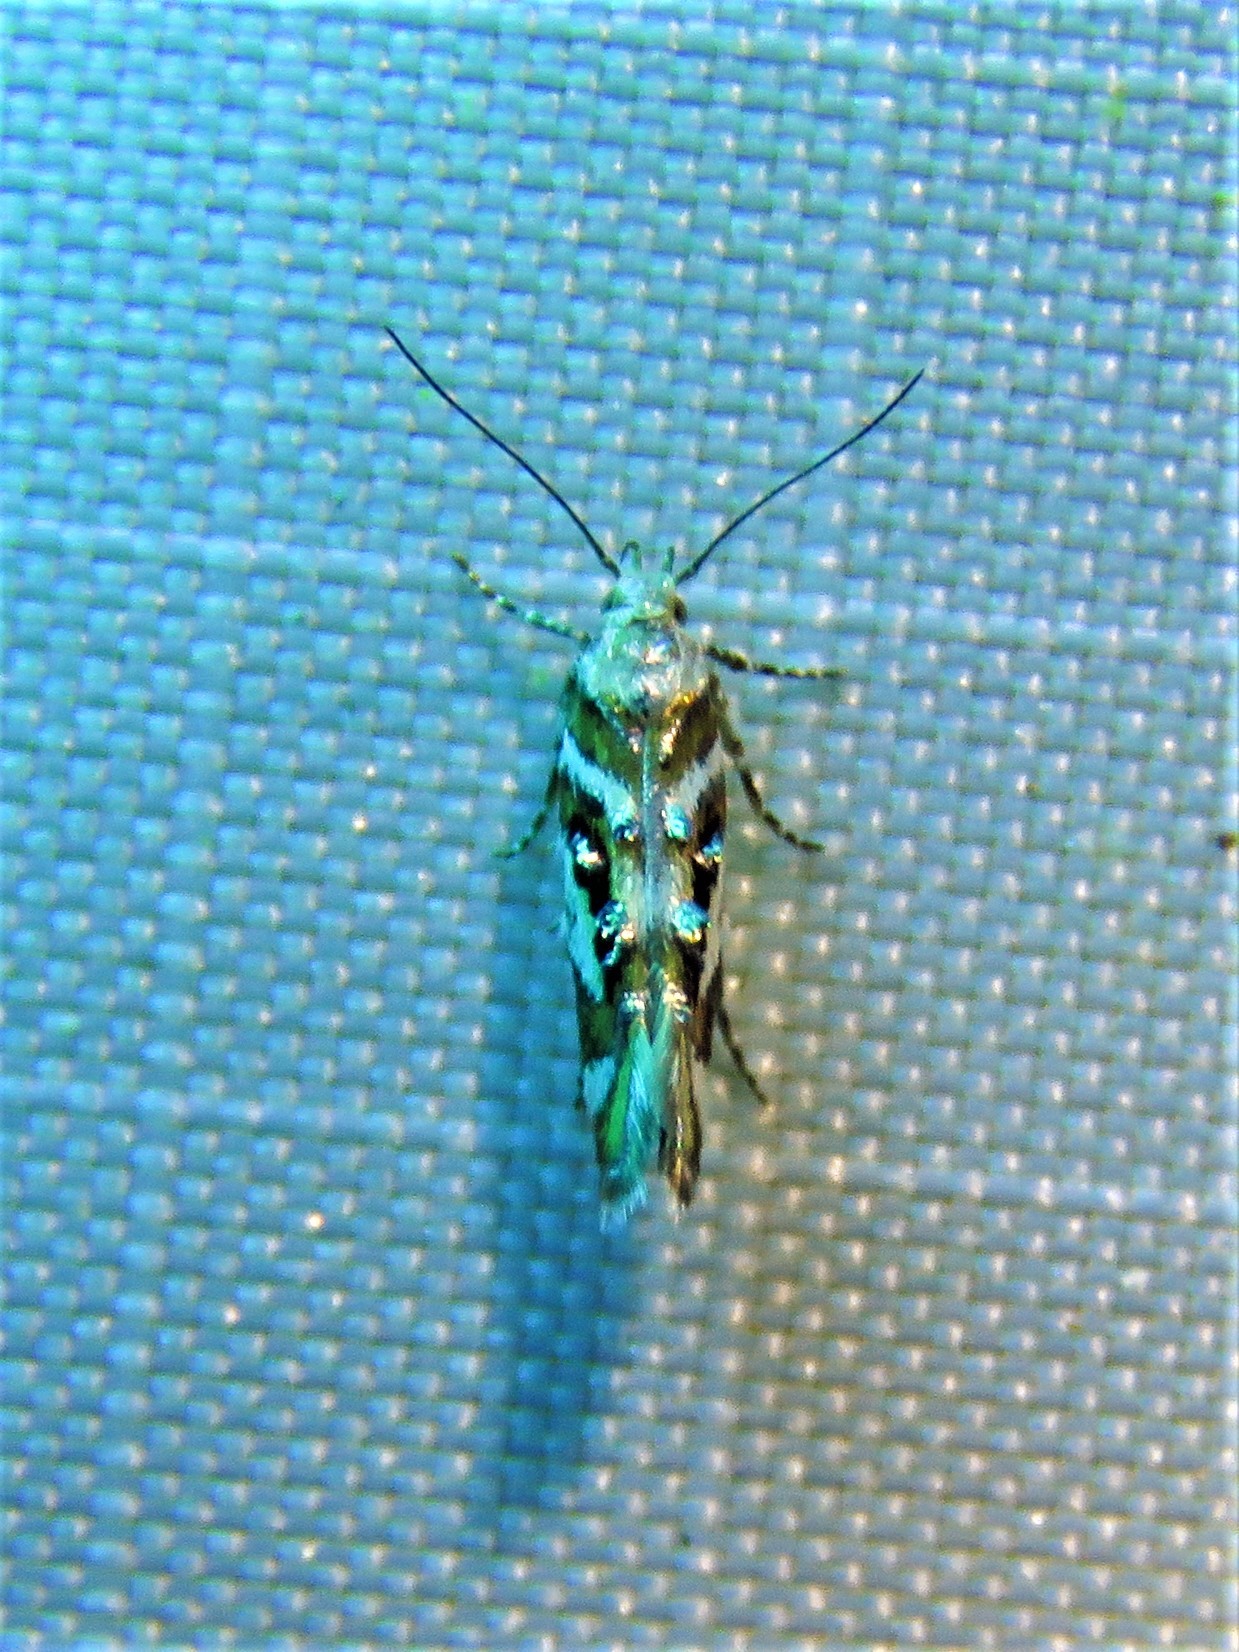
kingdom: Animalia
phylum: Arthropoda
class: Insecta
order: Lepidoptera
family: Gelechiidae
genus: Aristotelia
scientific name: Aristotelia elegantella
